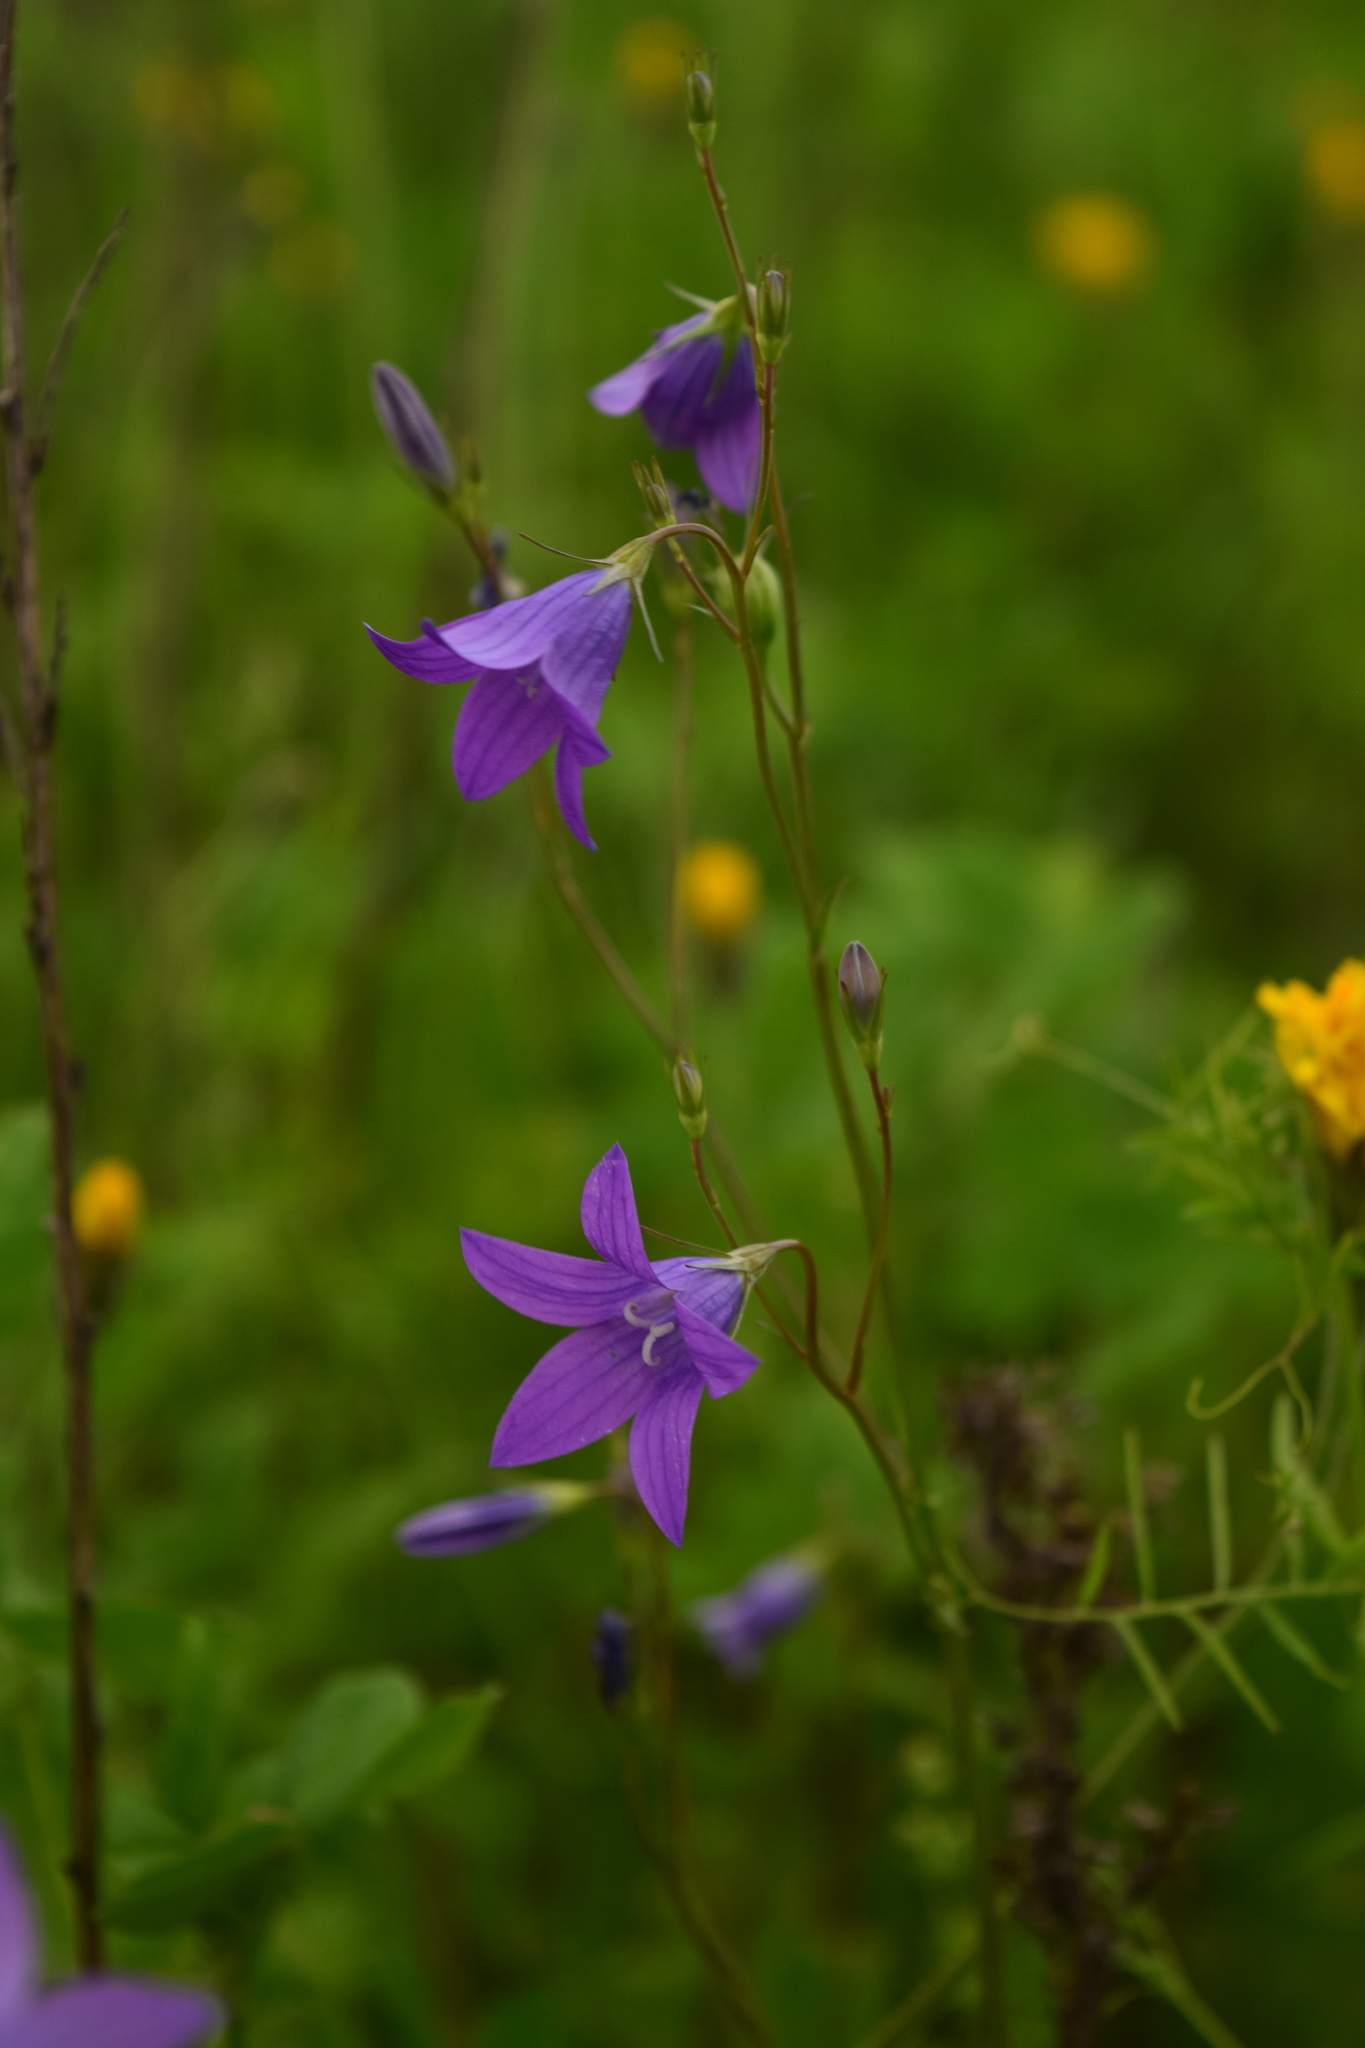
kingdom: Plantae
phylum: Tracheophyta
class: Magnoliopsida
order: Asterales
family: Campanulaceae
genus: Campanula
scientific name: Campanula patula
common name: Spreading bellflower
